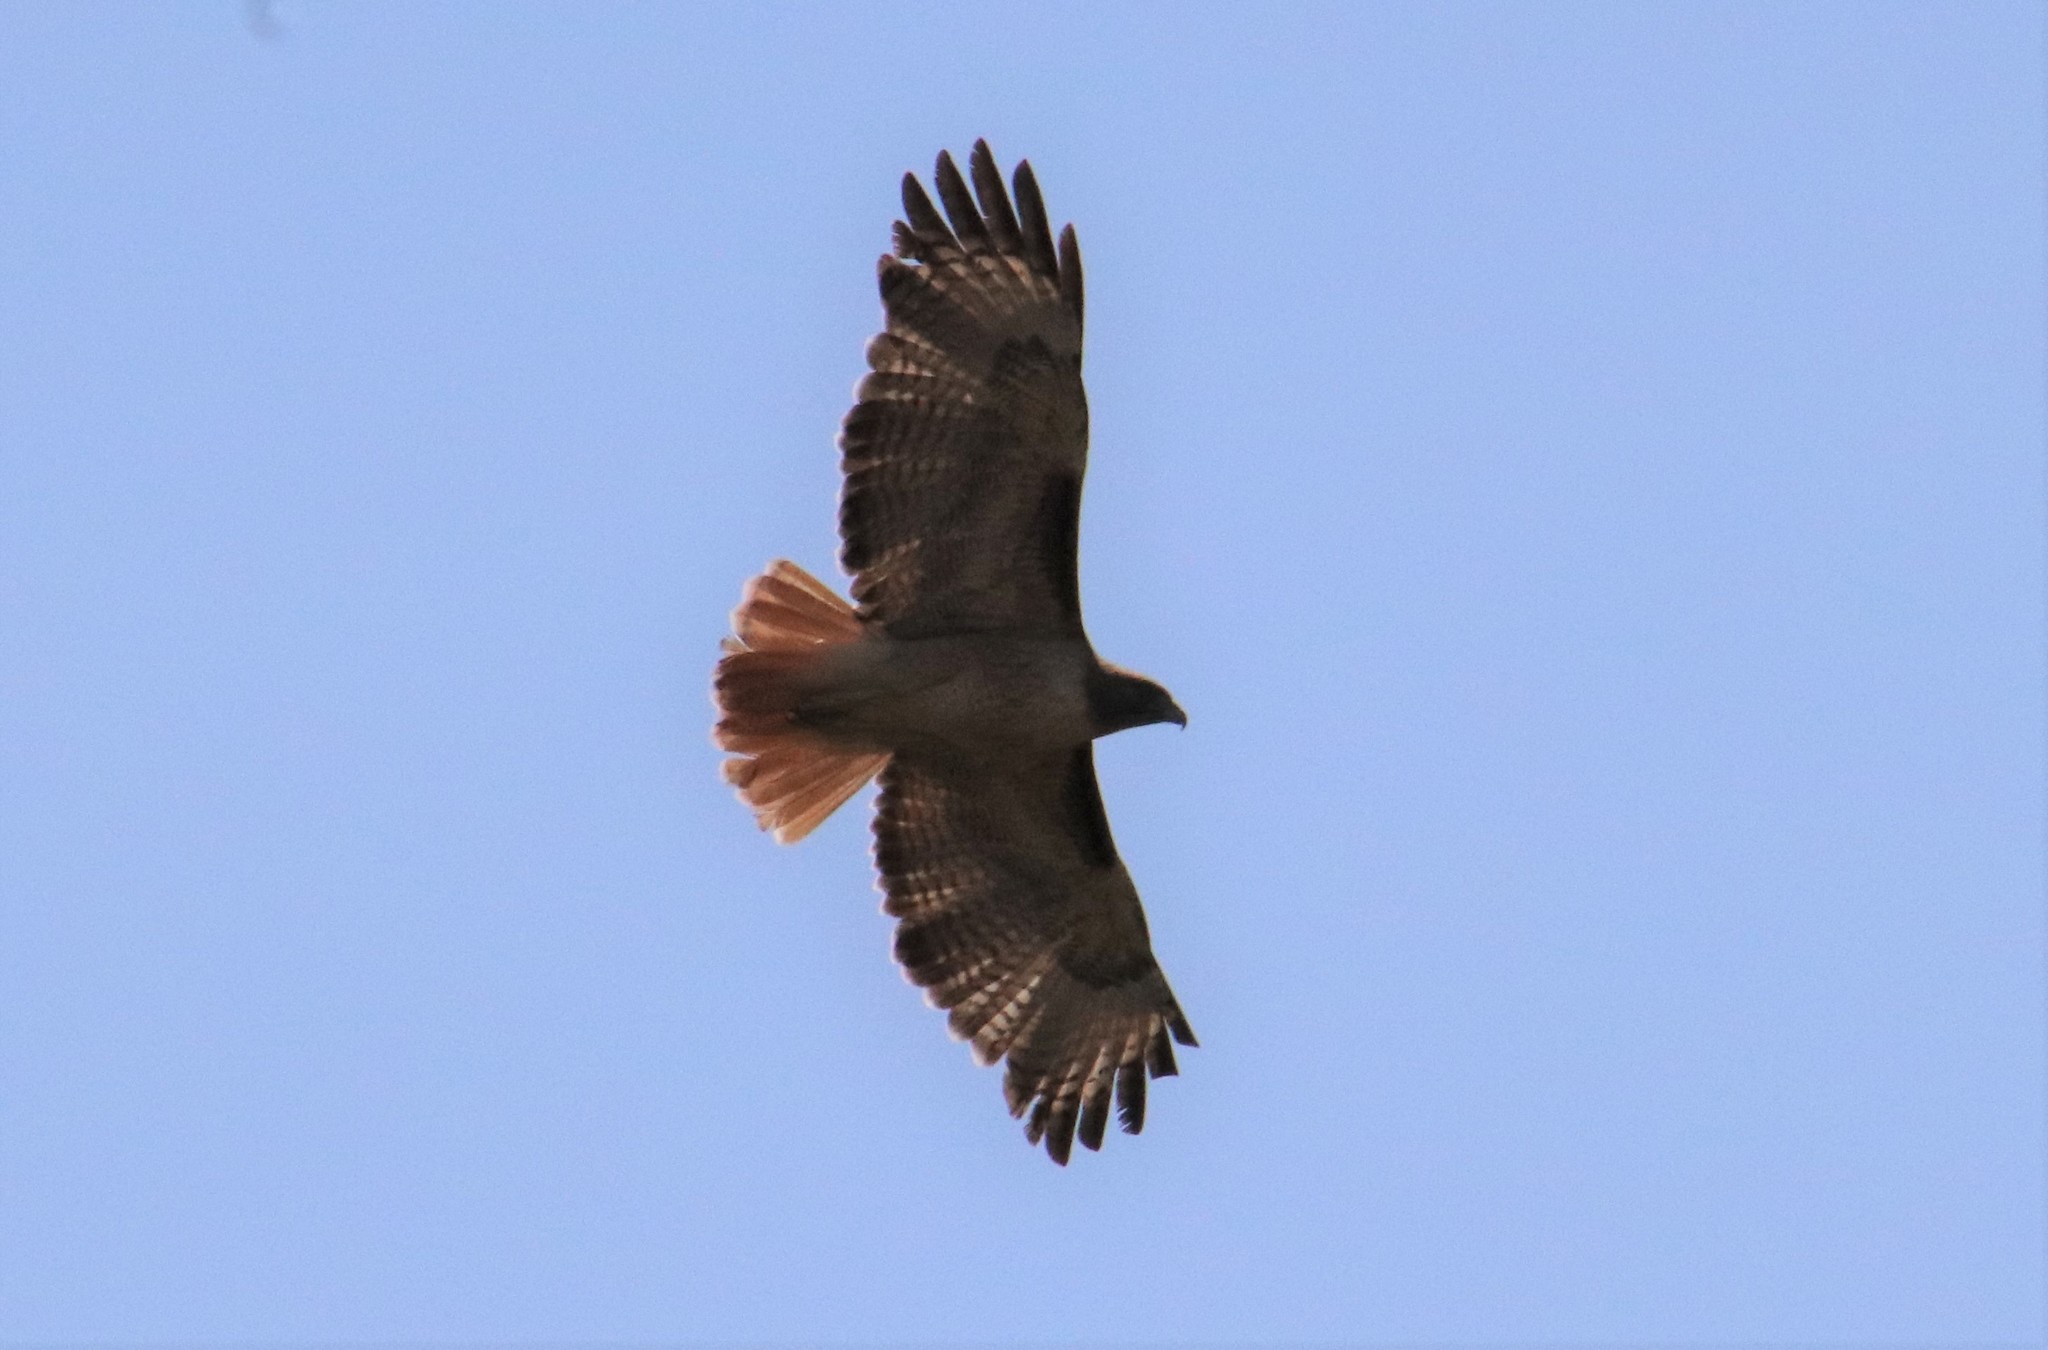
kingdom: Animalia
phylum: Chordata
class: Aves
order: Accipitriformes
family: Accipitridae
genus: Buteo
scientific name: Buteo jamaicensis
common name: Red-tailed hawk
